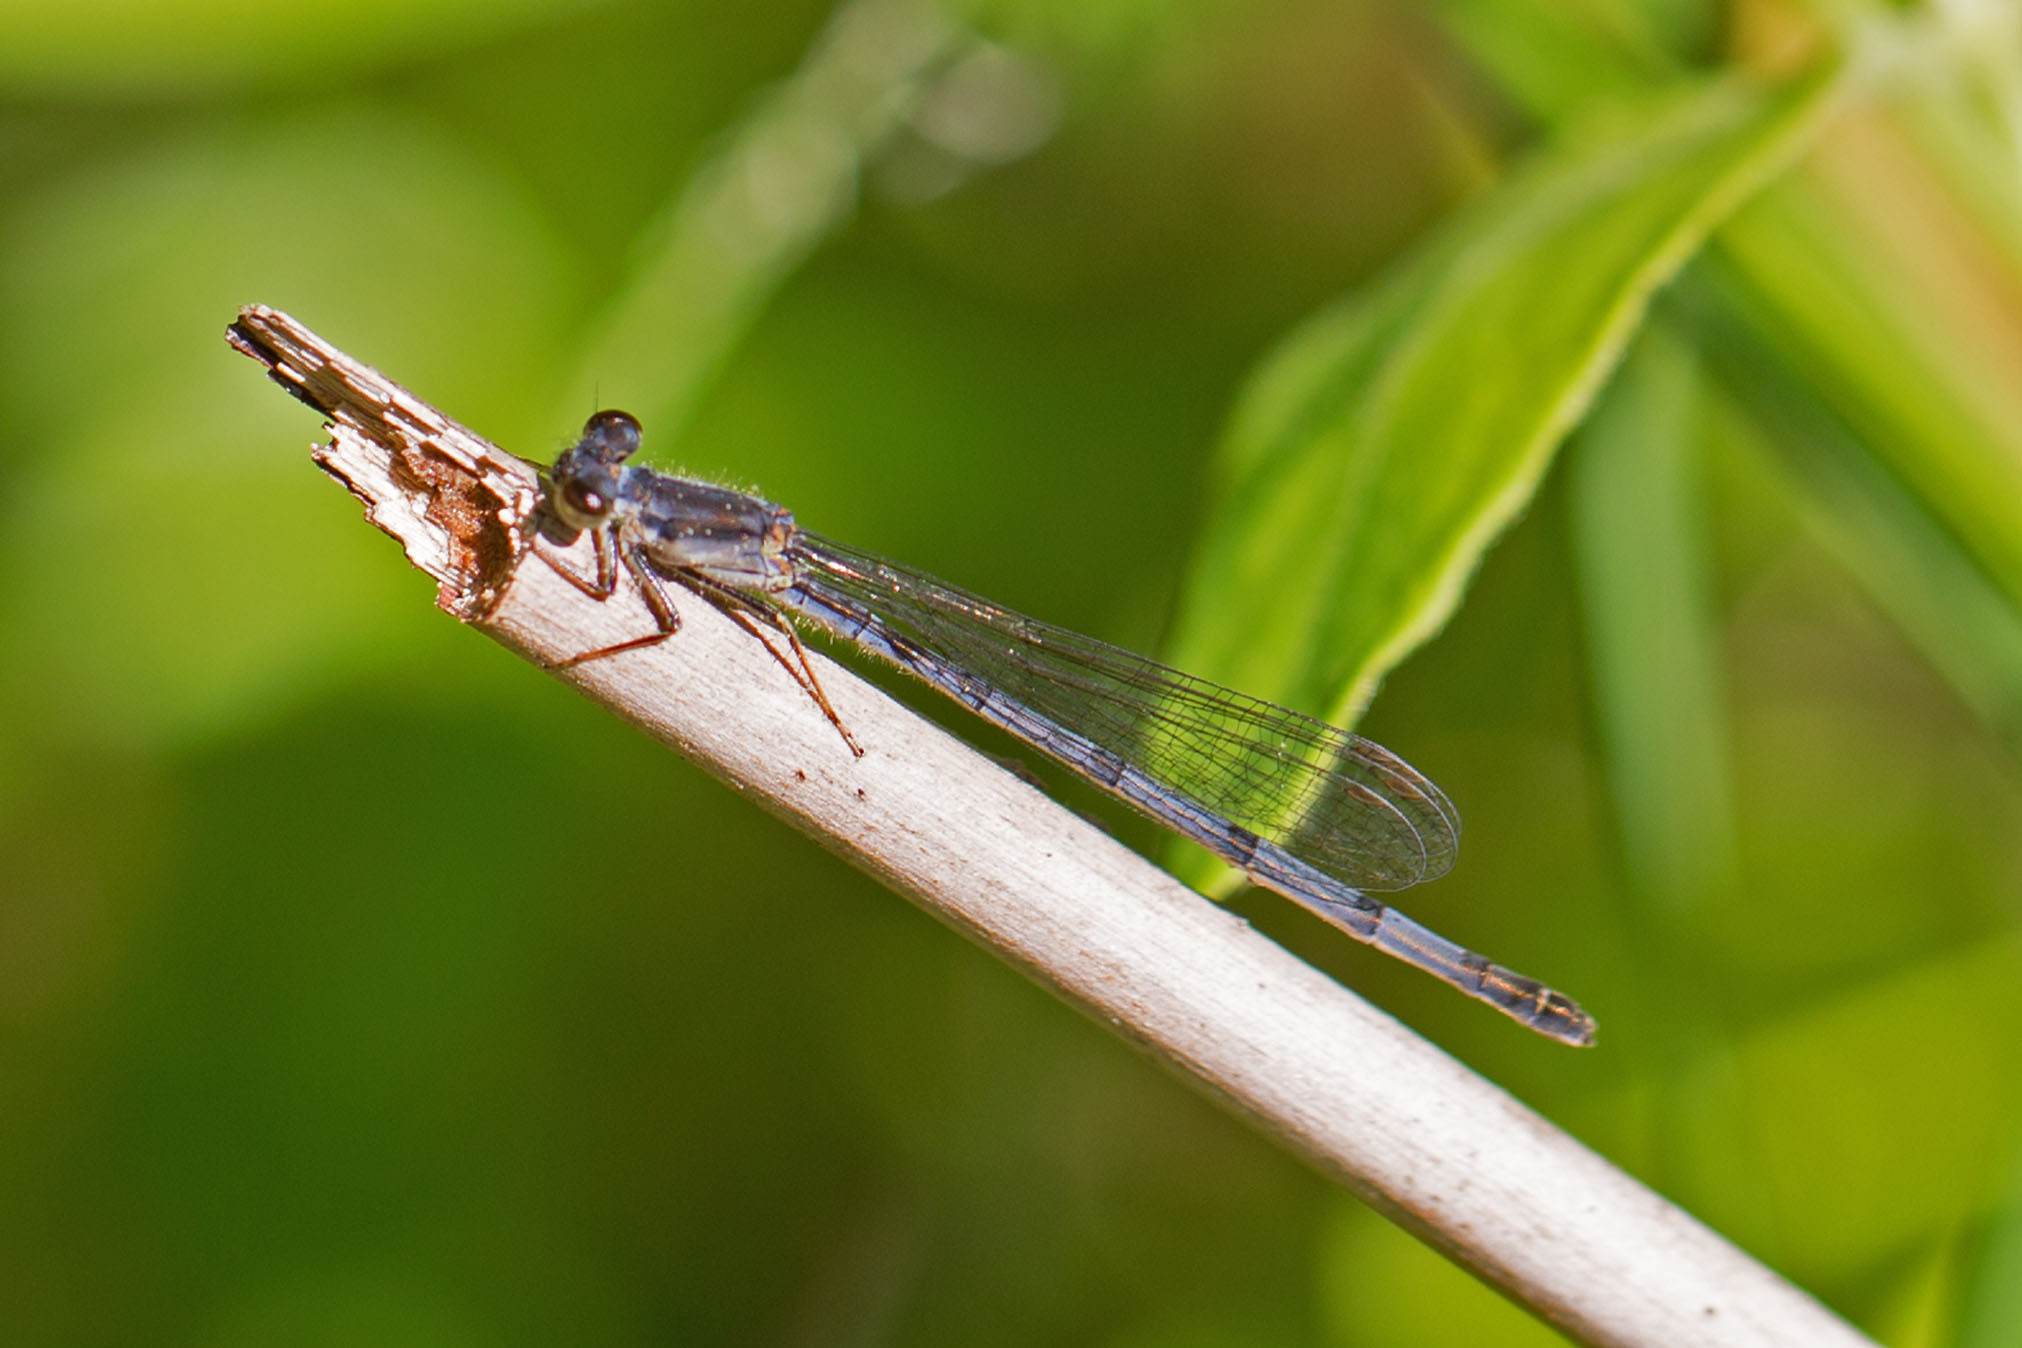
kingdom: Animalia
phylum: Arthropoda
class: Insecta
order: Odonata
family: Coenagrionidae
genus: Ischnura
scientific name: Ischnura posita
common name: Fragile forktail
